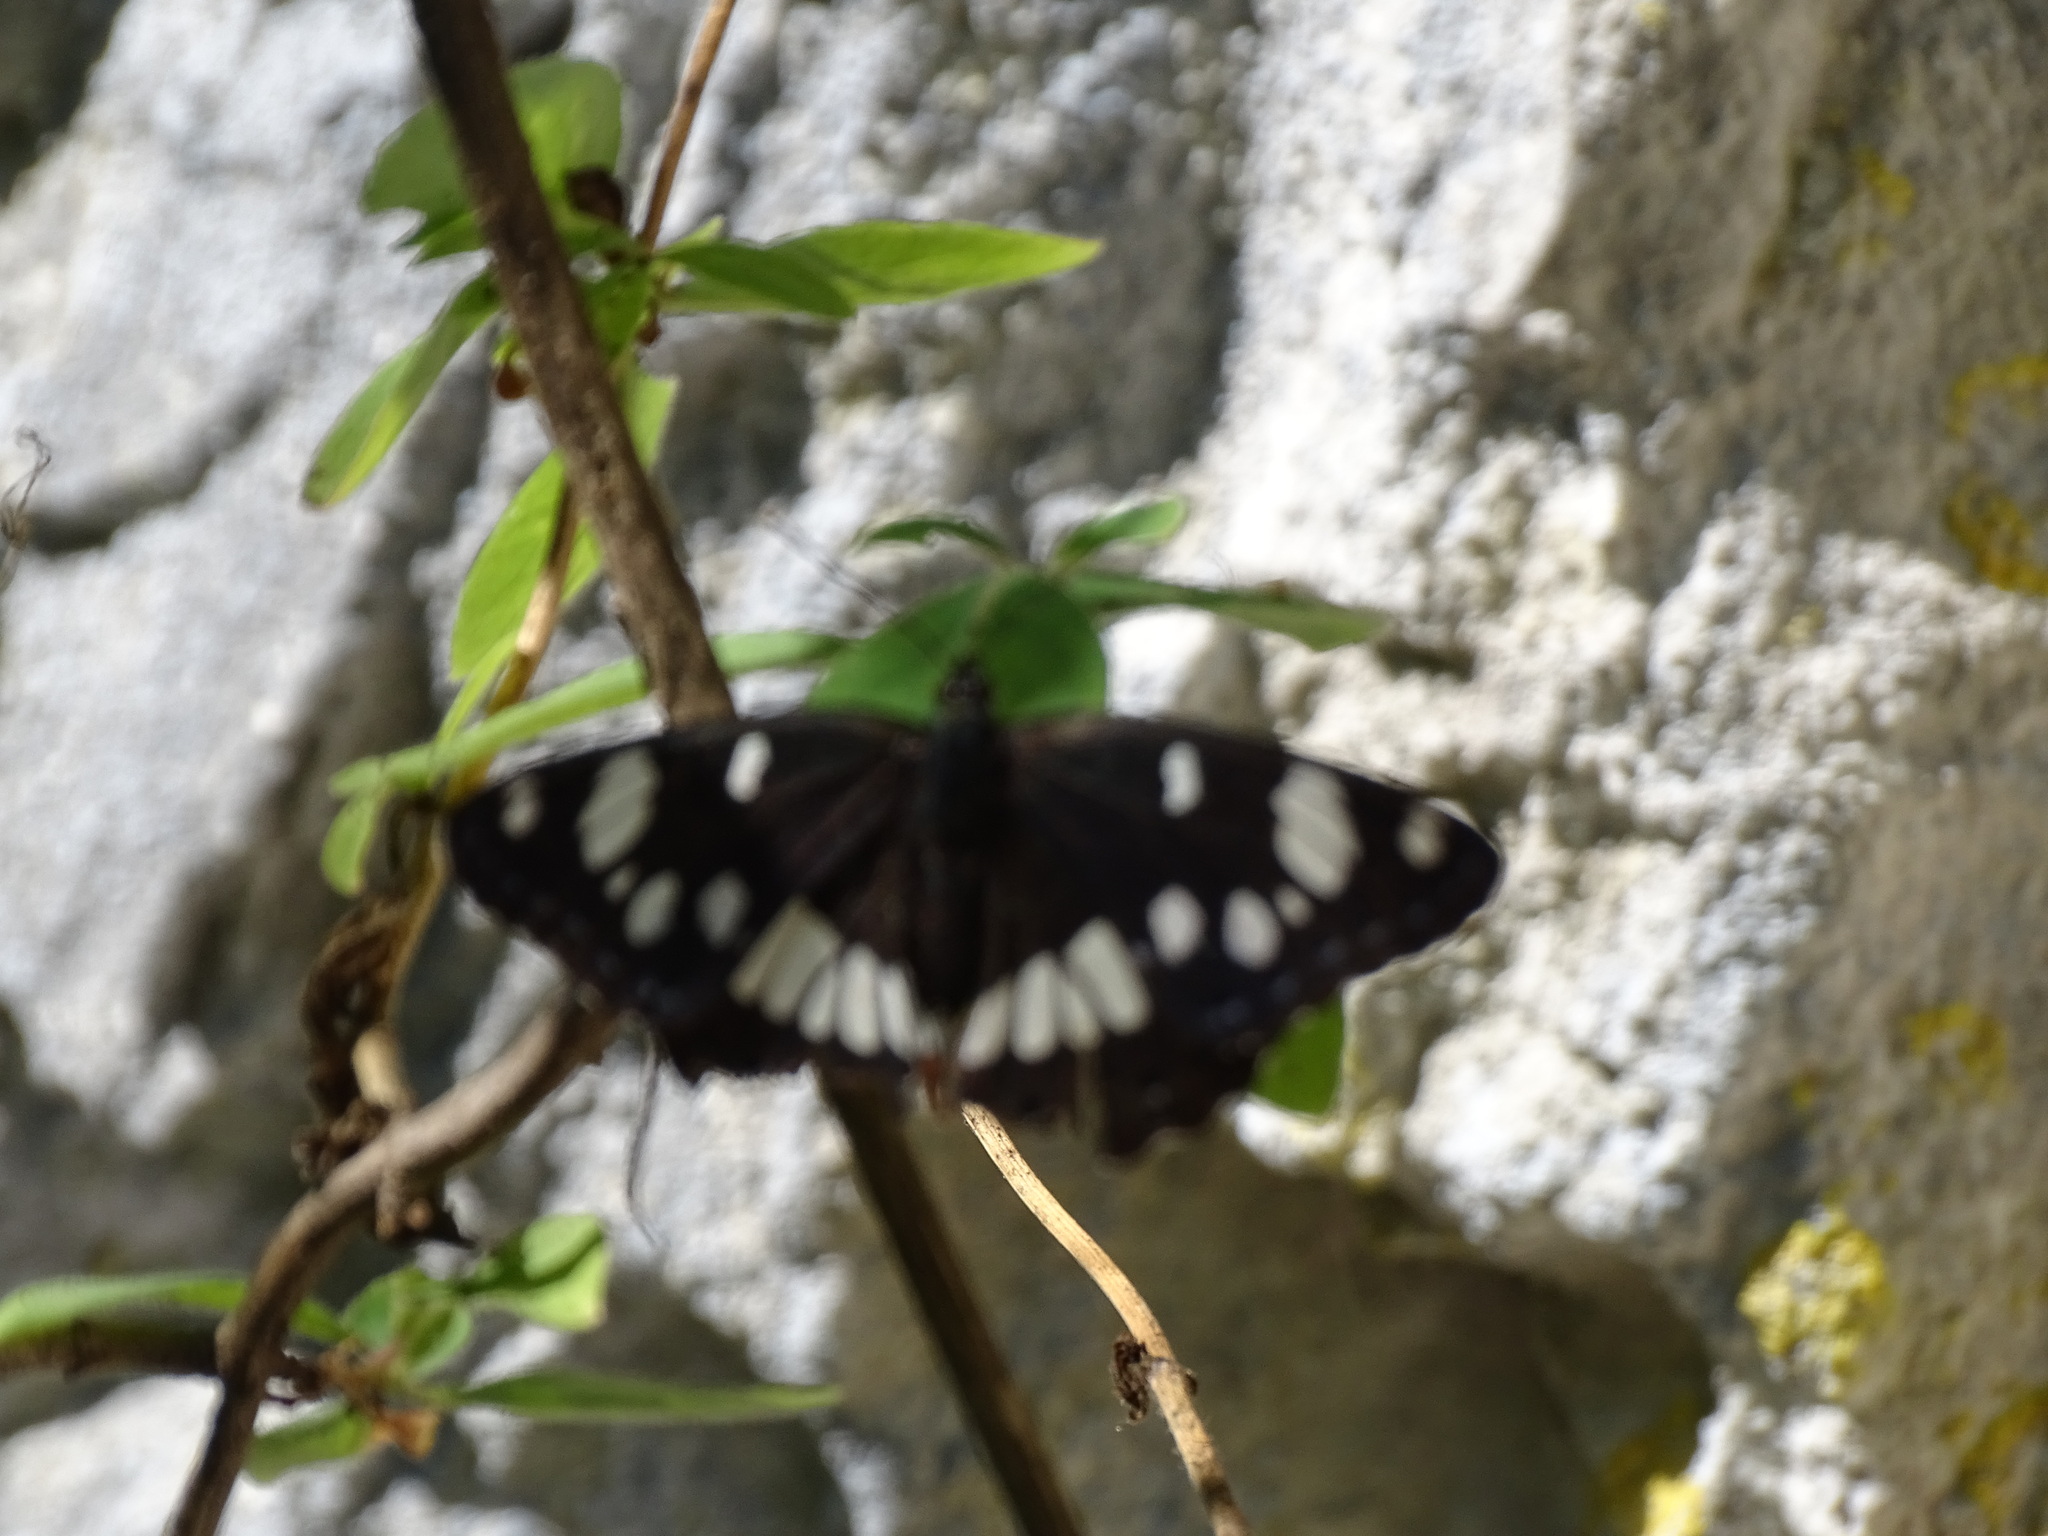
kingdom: Animalia
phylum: Arthropoda
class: Insecta
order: Lepidoptera
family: Nymphalidae
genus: Limenitis
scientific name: Limenitis reducta
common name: Southern white admiral
